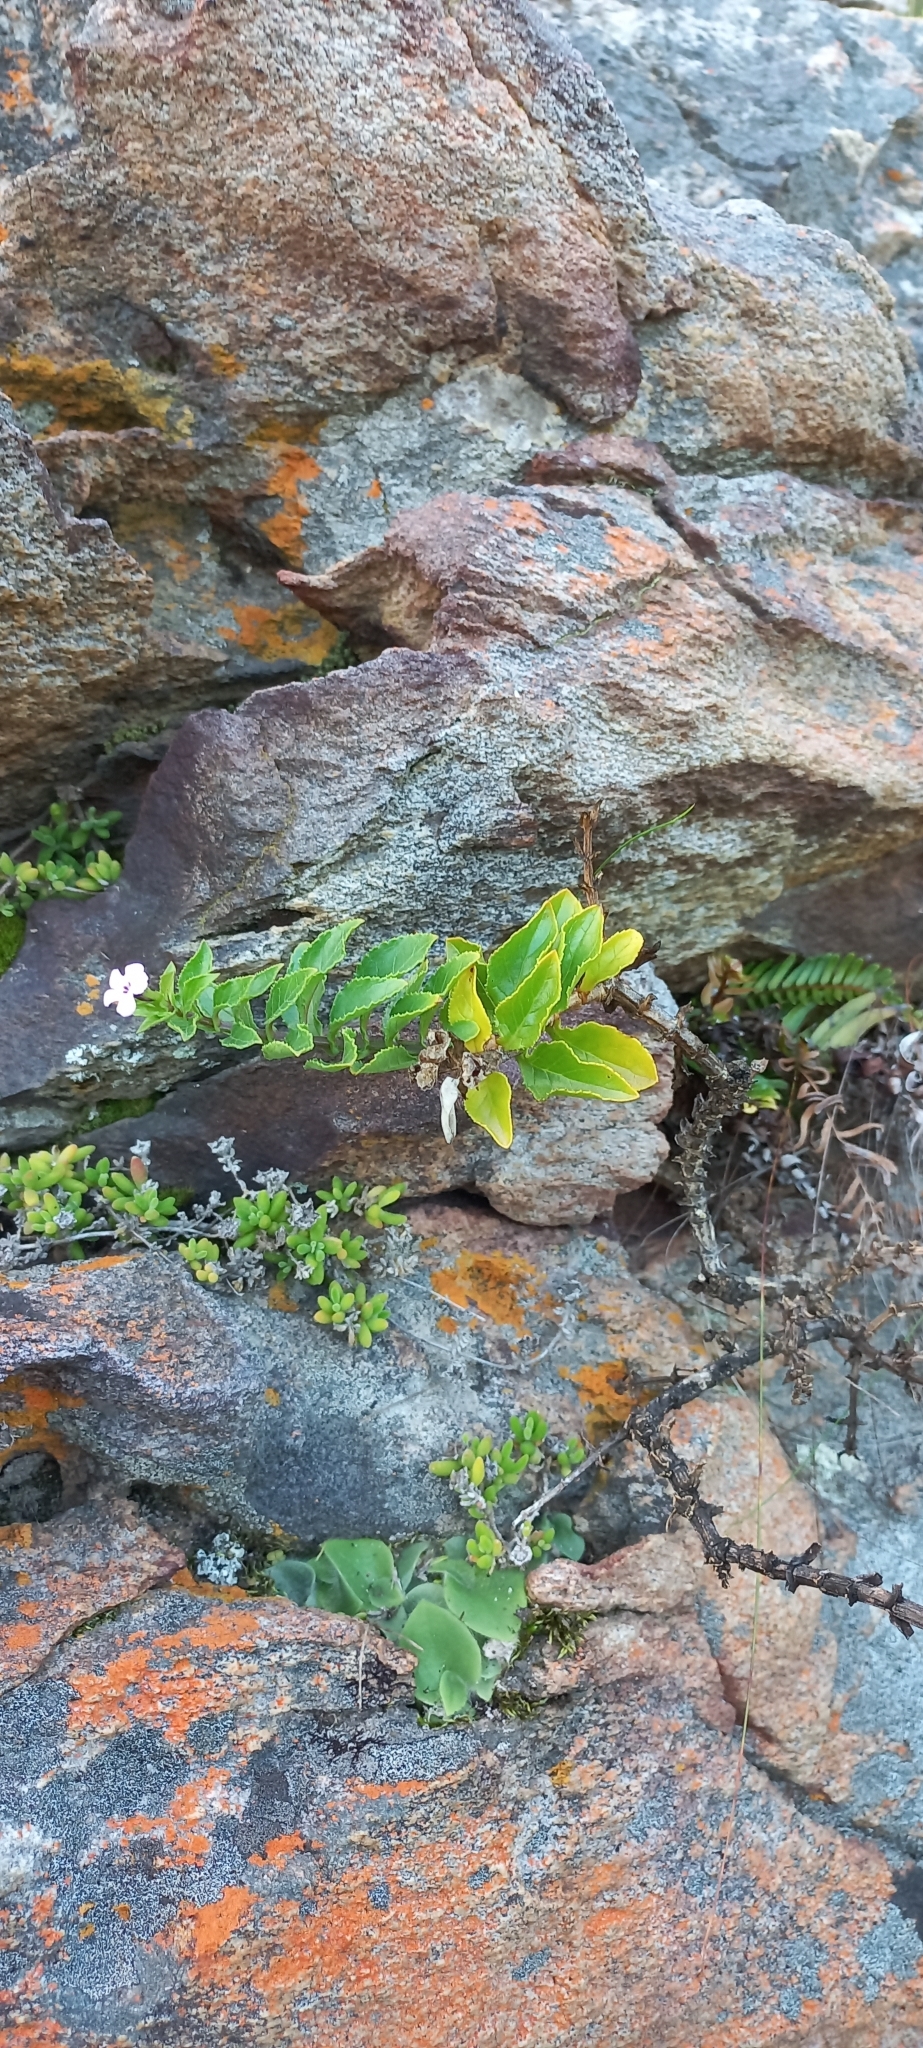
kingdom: Plantae
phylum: Tracheophyta
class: Magnoliopsida
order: Lamiales
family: Scrophulariaceae
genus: Teedia
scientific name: Teedia lucida
